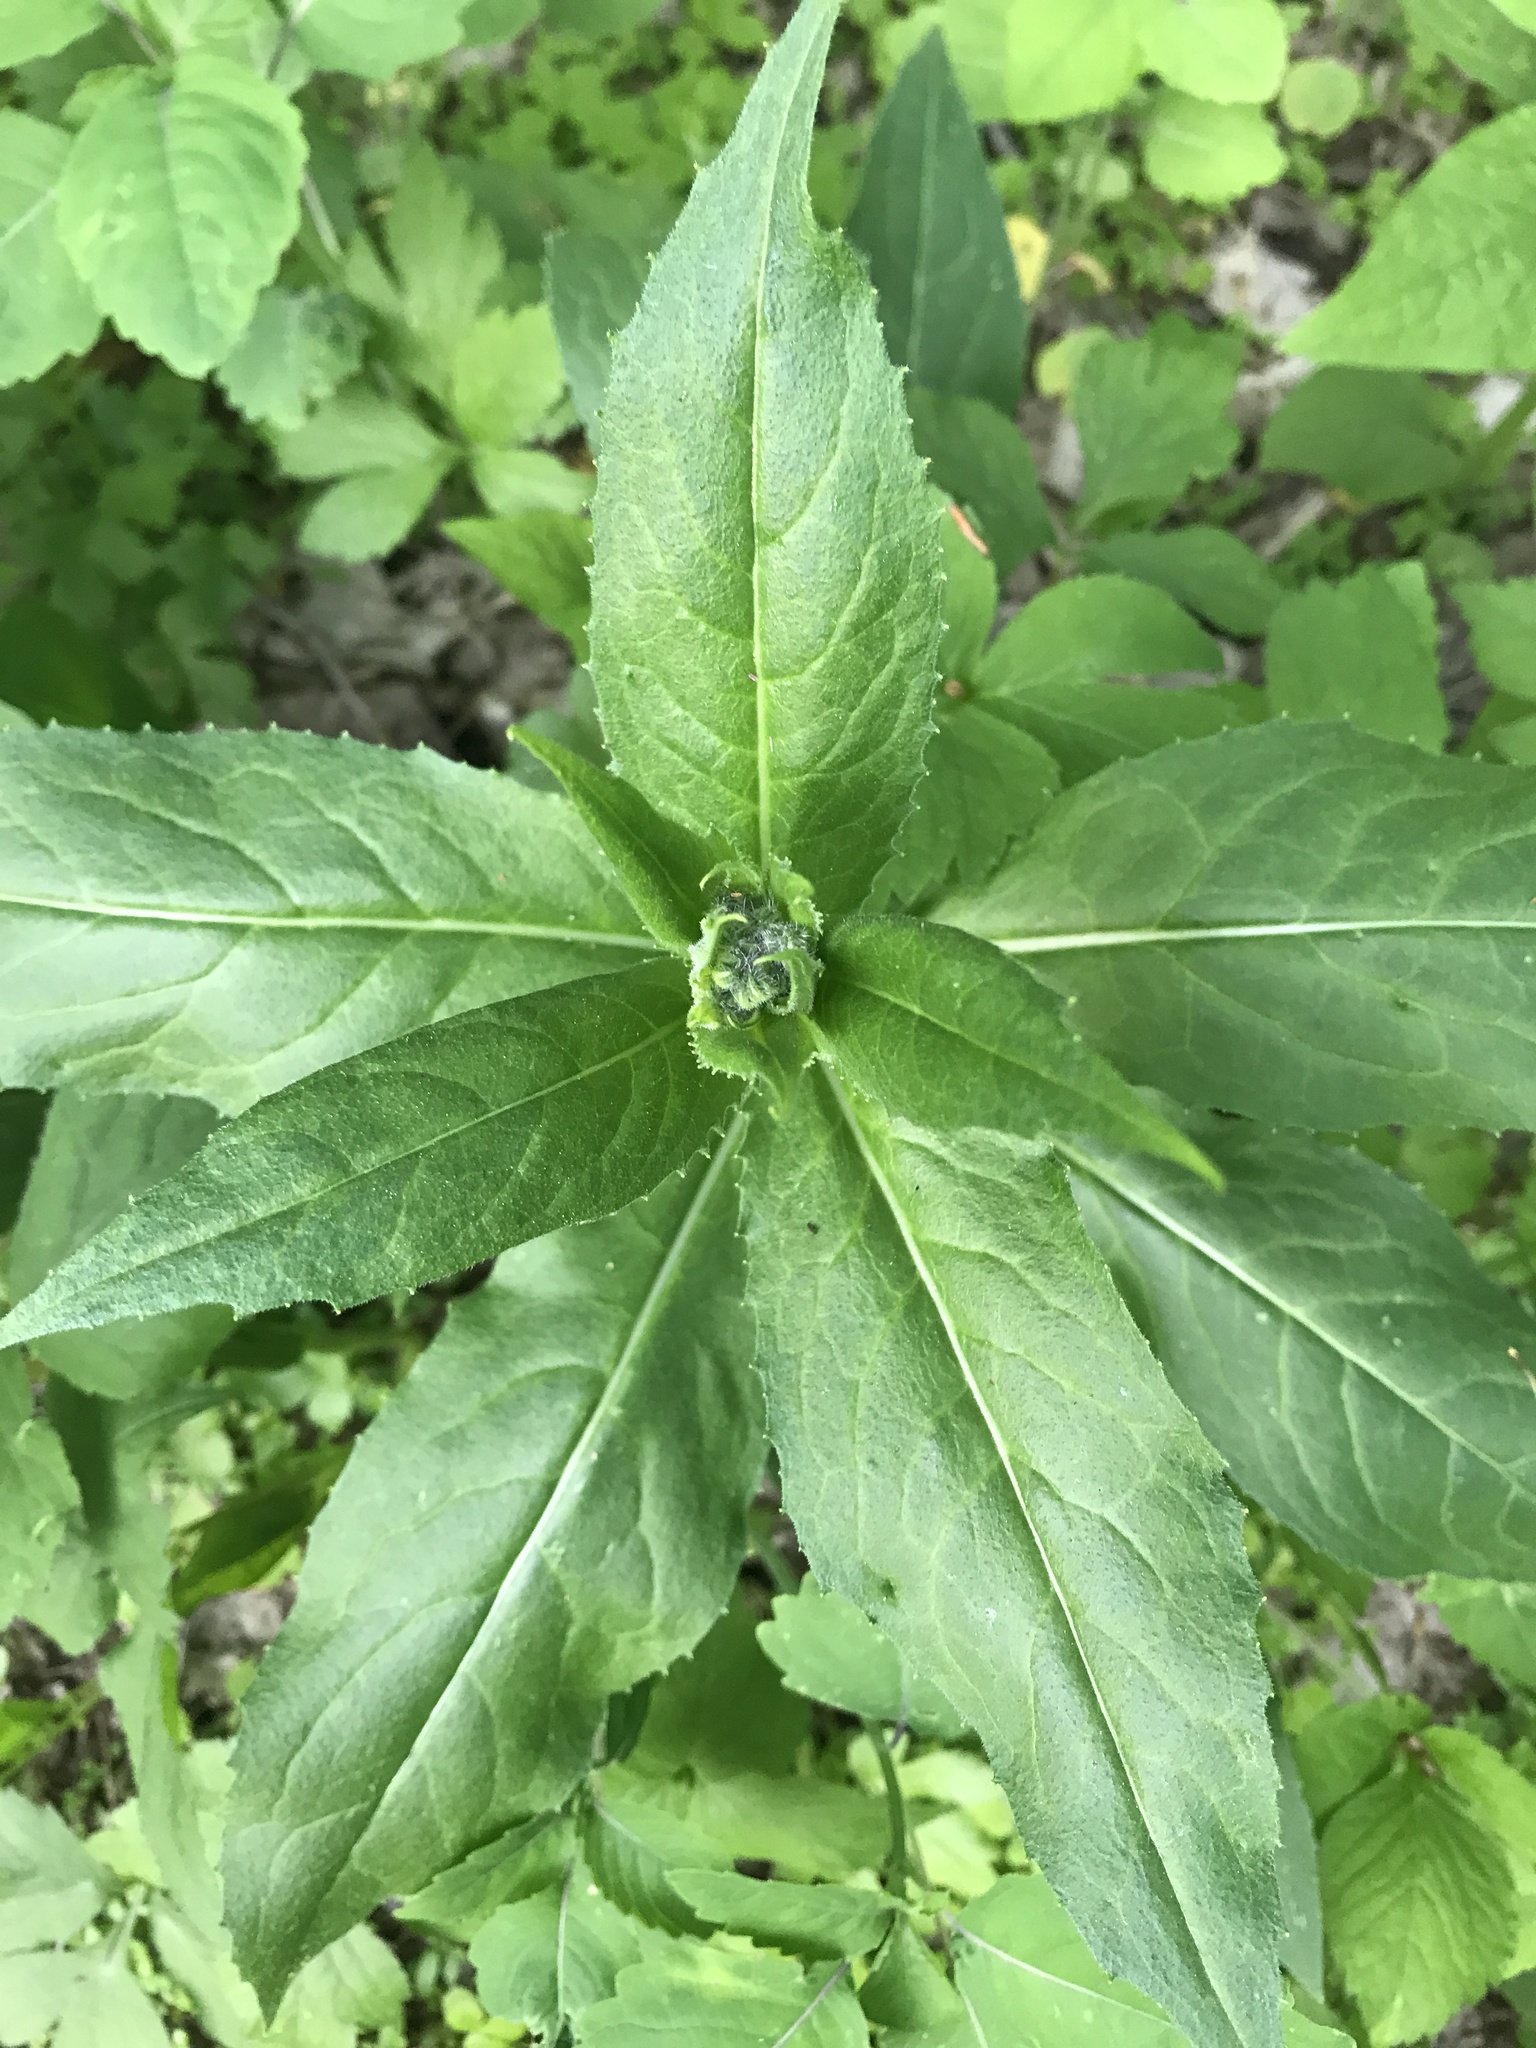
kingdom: Plantae
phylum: Tracheophyta
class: Magnoliopsida
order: Brassicales
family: Brassicaceae
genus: Hesperis
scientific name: Hesperis matronalis
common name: Dame's-violet
